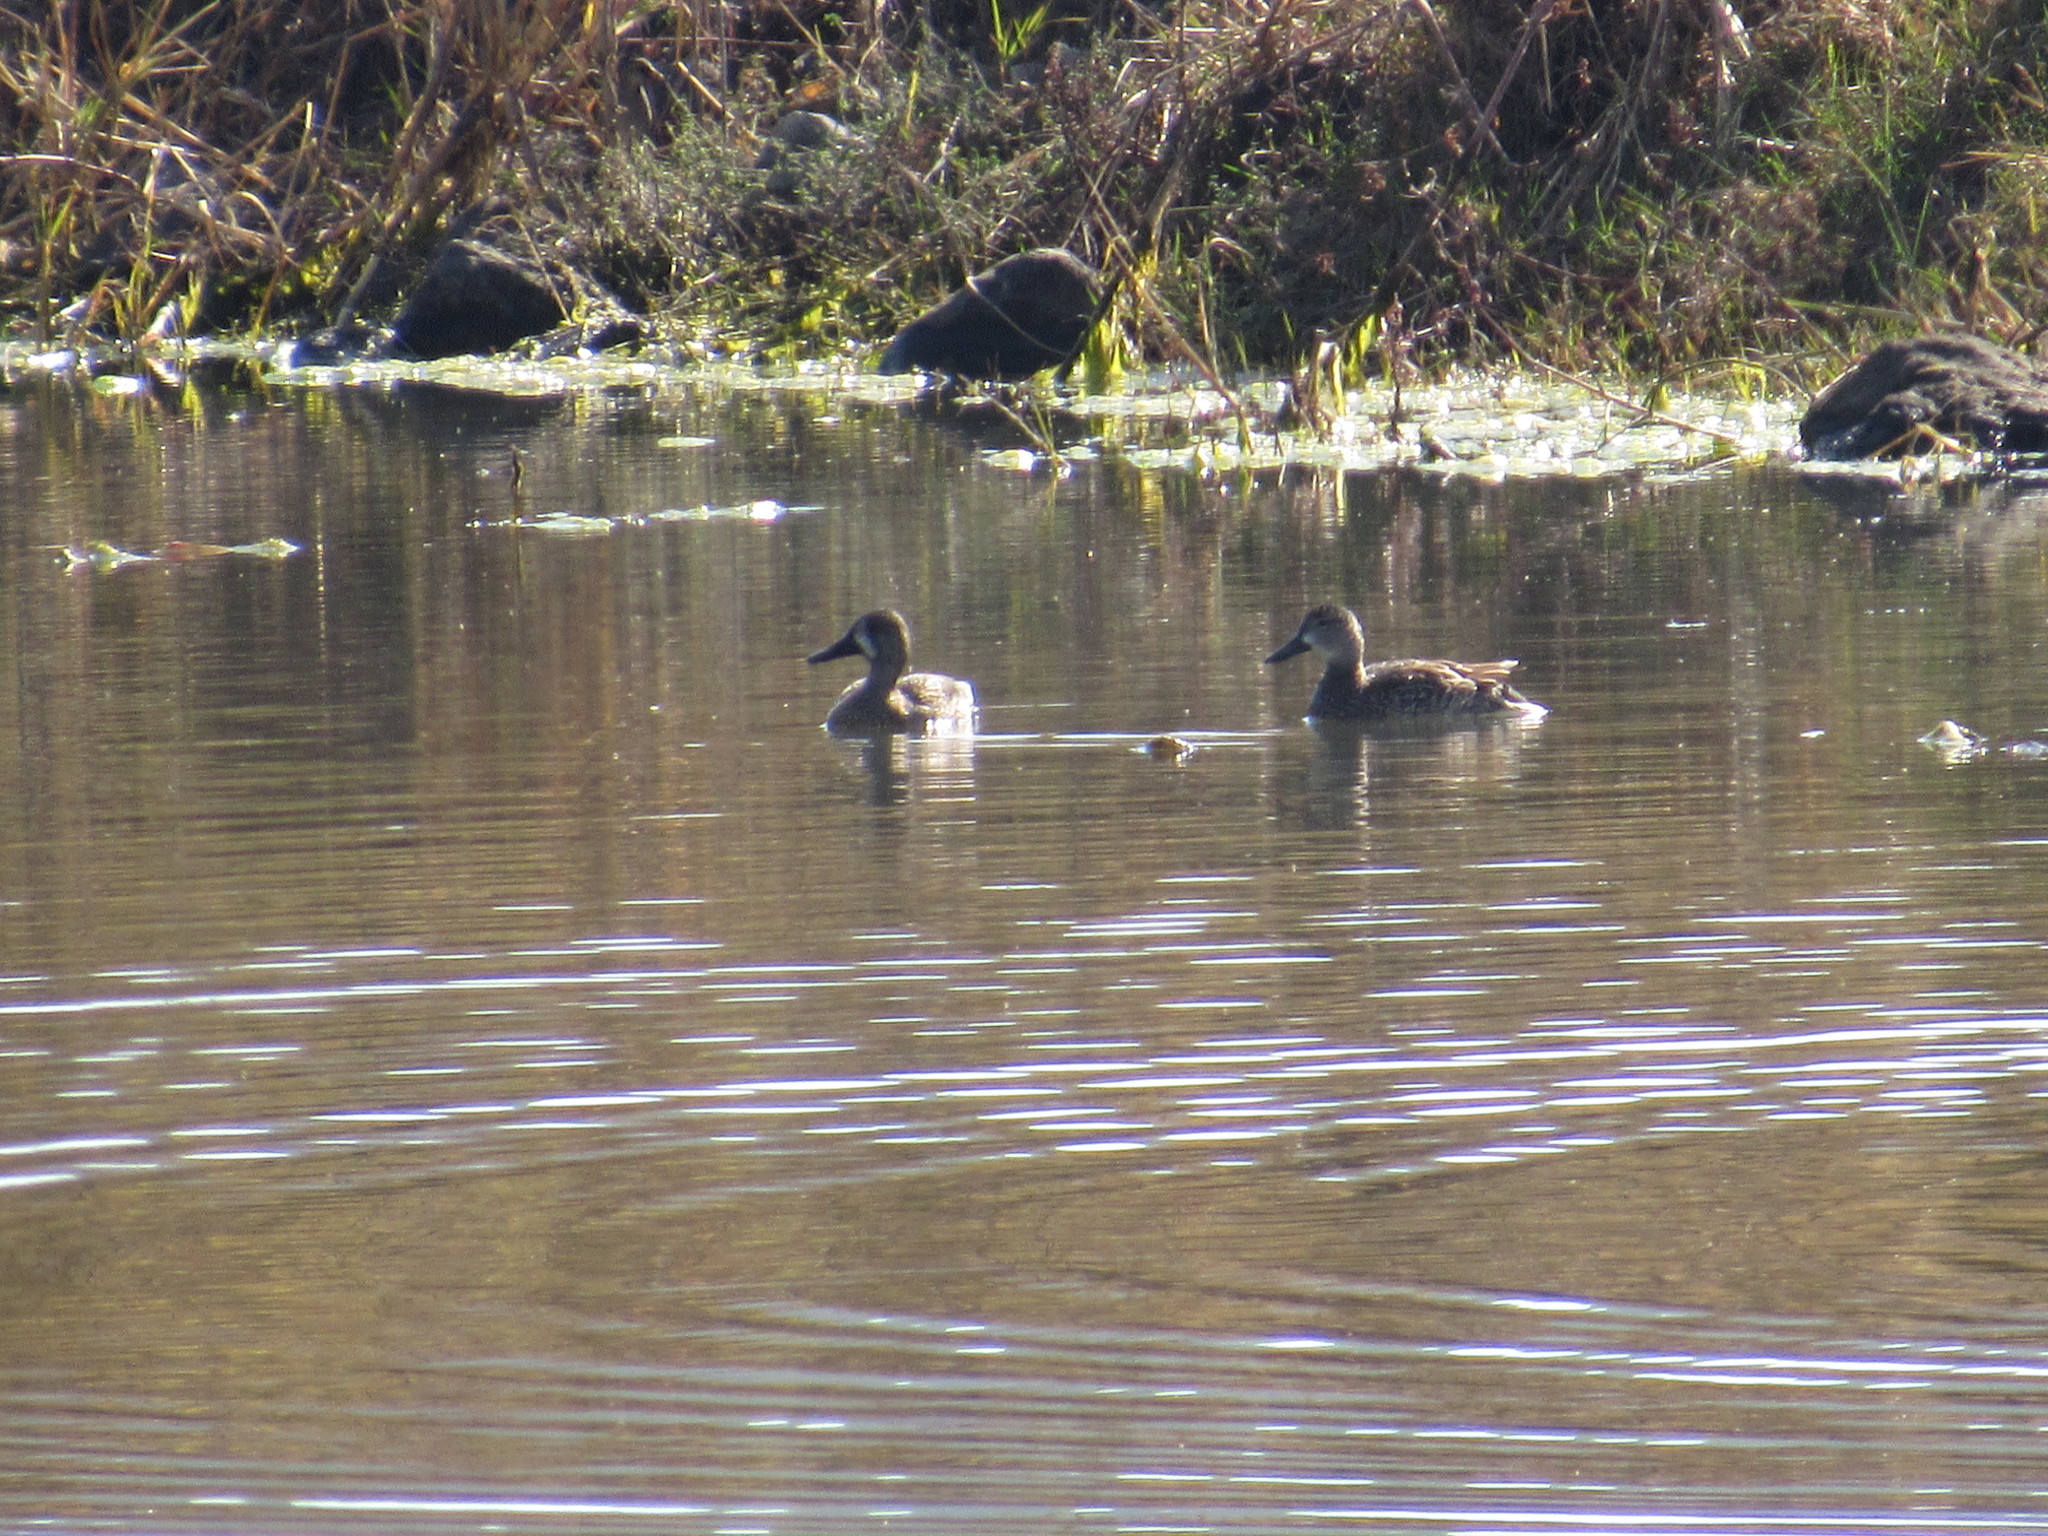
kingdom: Animalia
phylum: Chordata
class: Aves
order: Anseriformes
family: Anatidae
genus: Spatula
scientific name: Spatula discors
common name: Blue-winged teal
